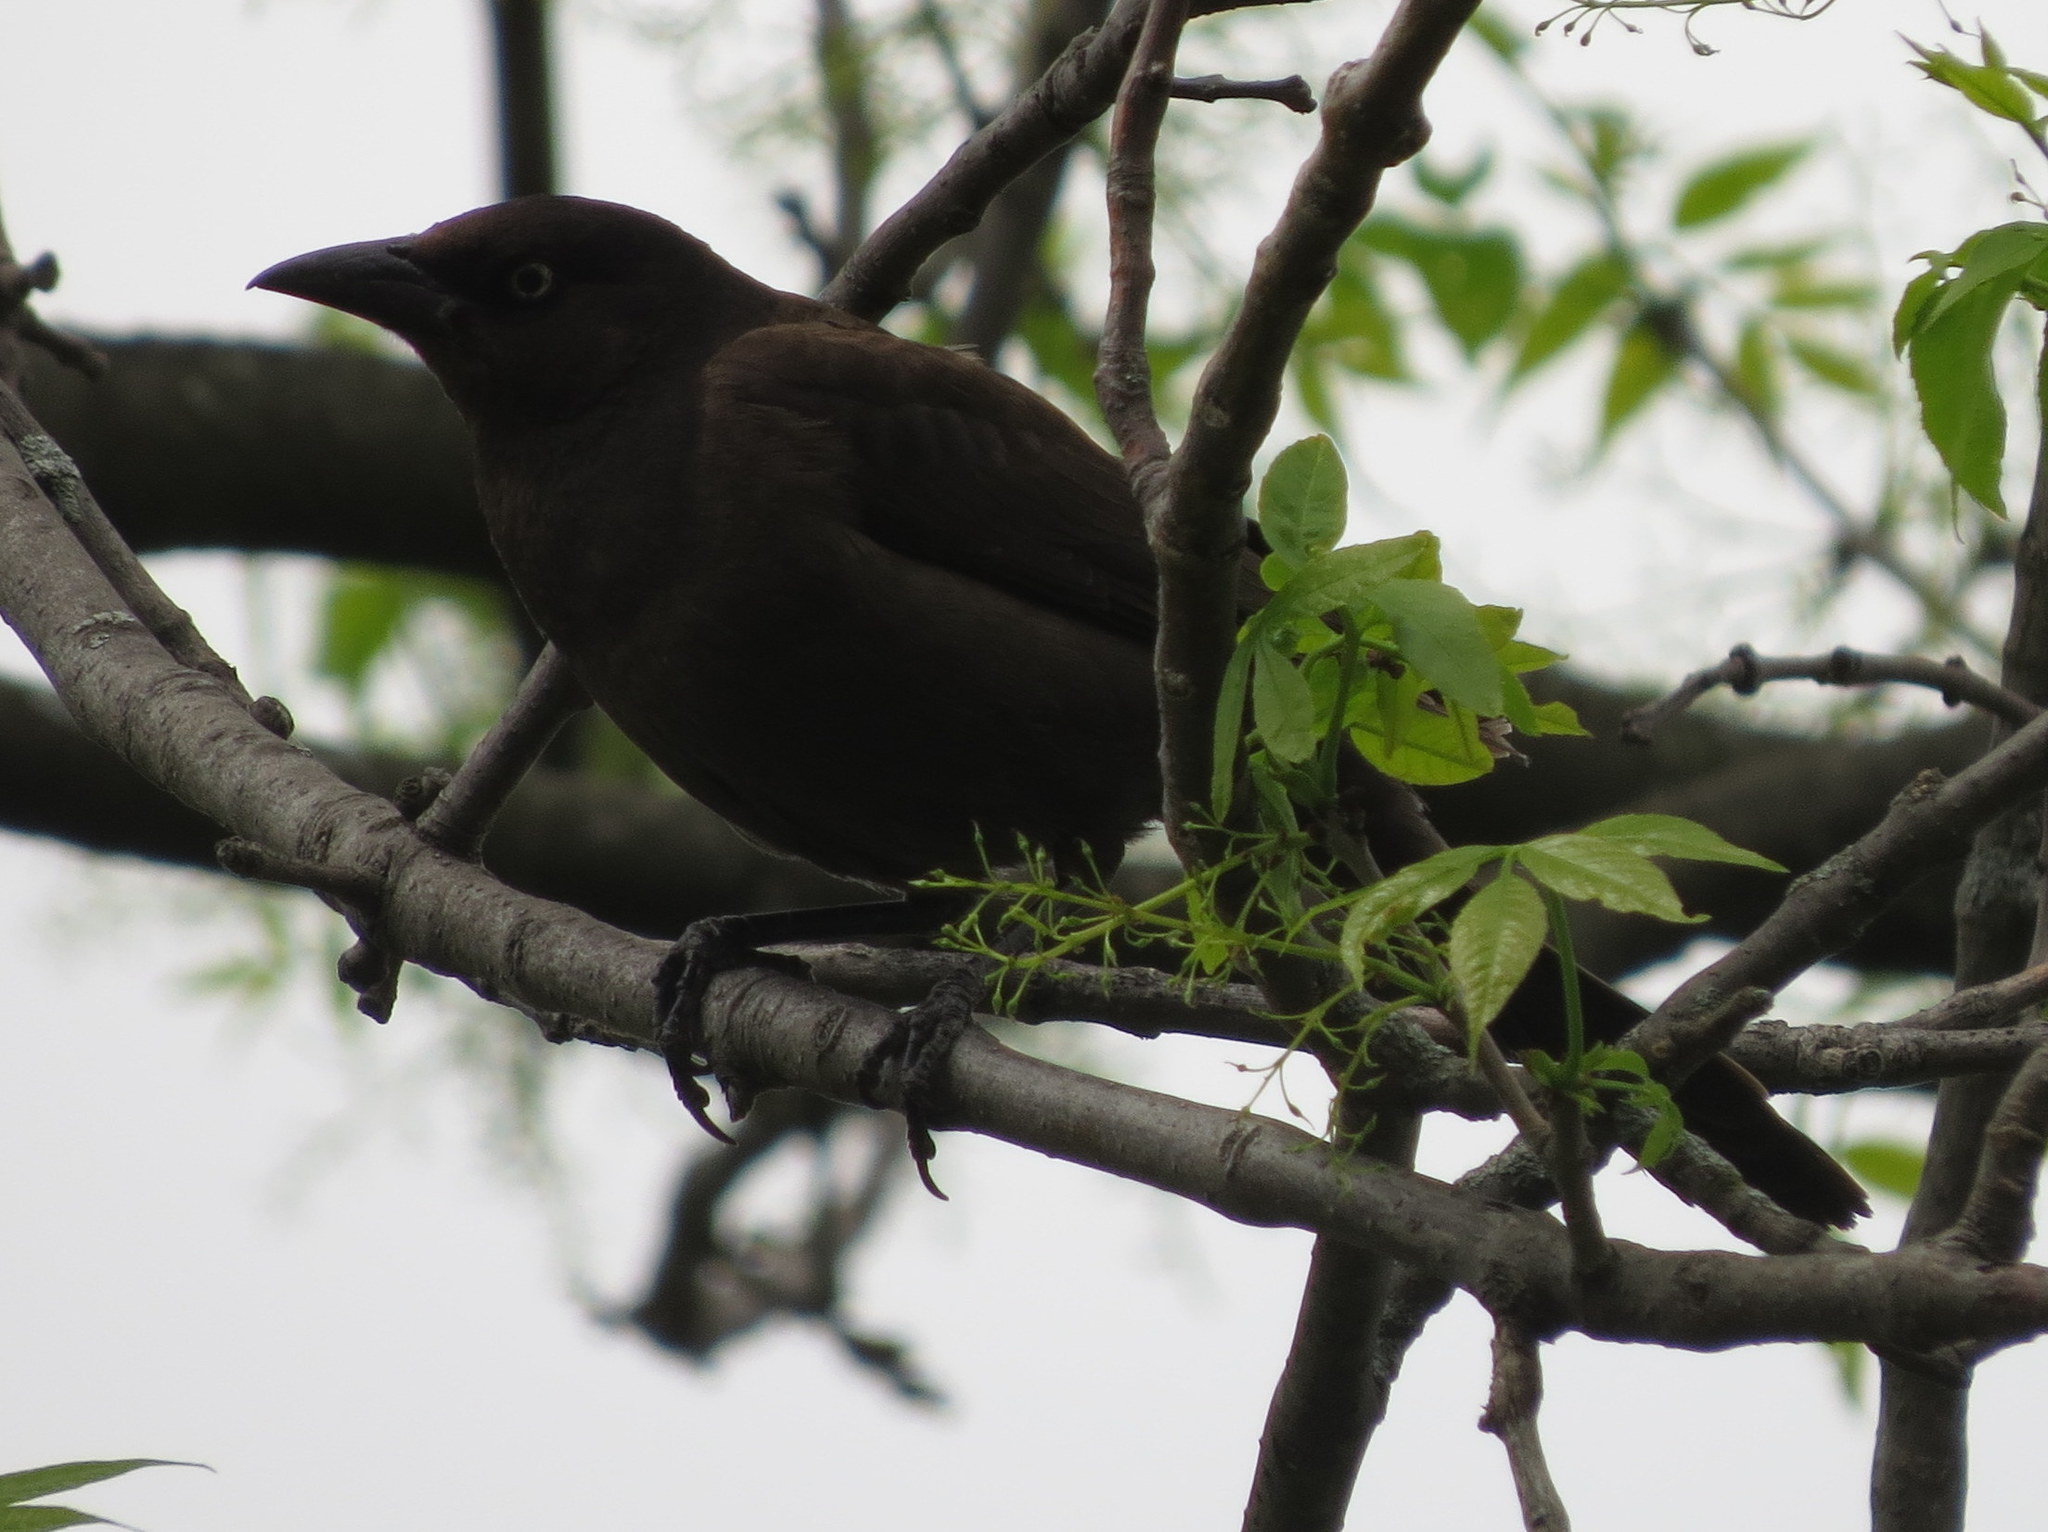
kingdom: Animalia
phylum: Chordata
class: Aves
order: Passeriformes
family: Icteridae
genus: Quiscalus
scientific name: Quiscalus quiscula
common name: Common grackle
